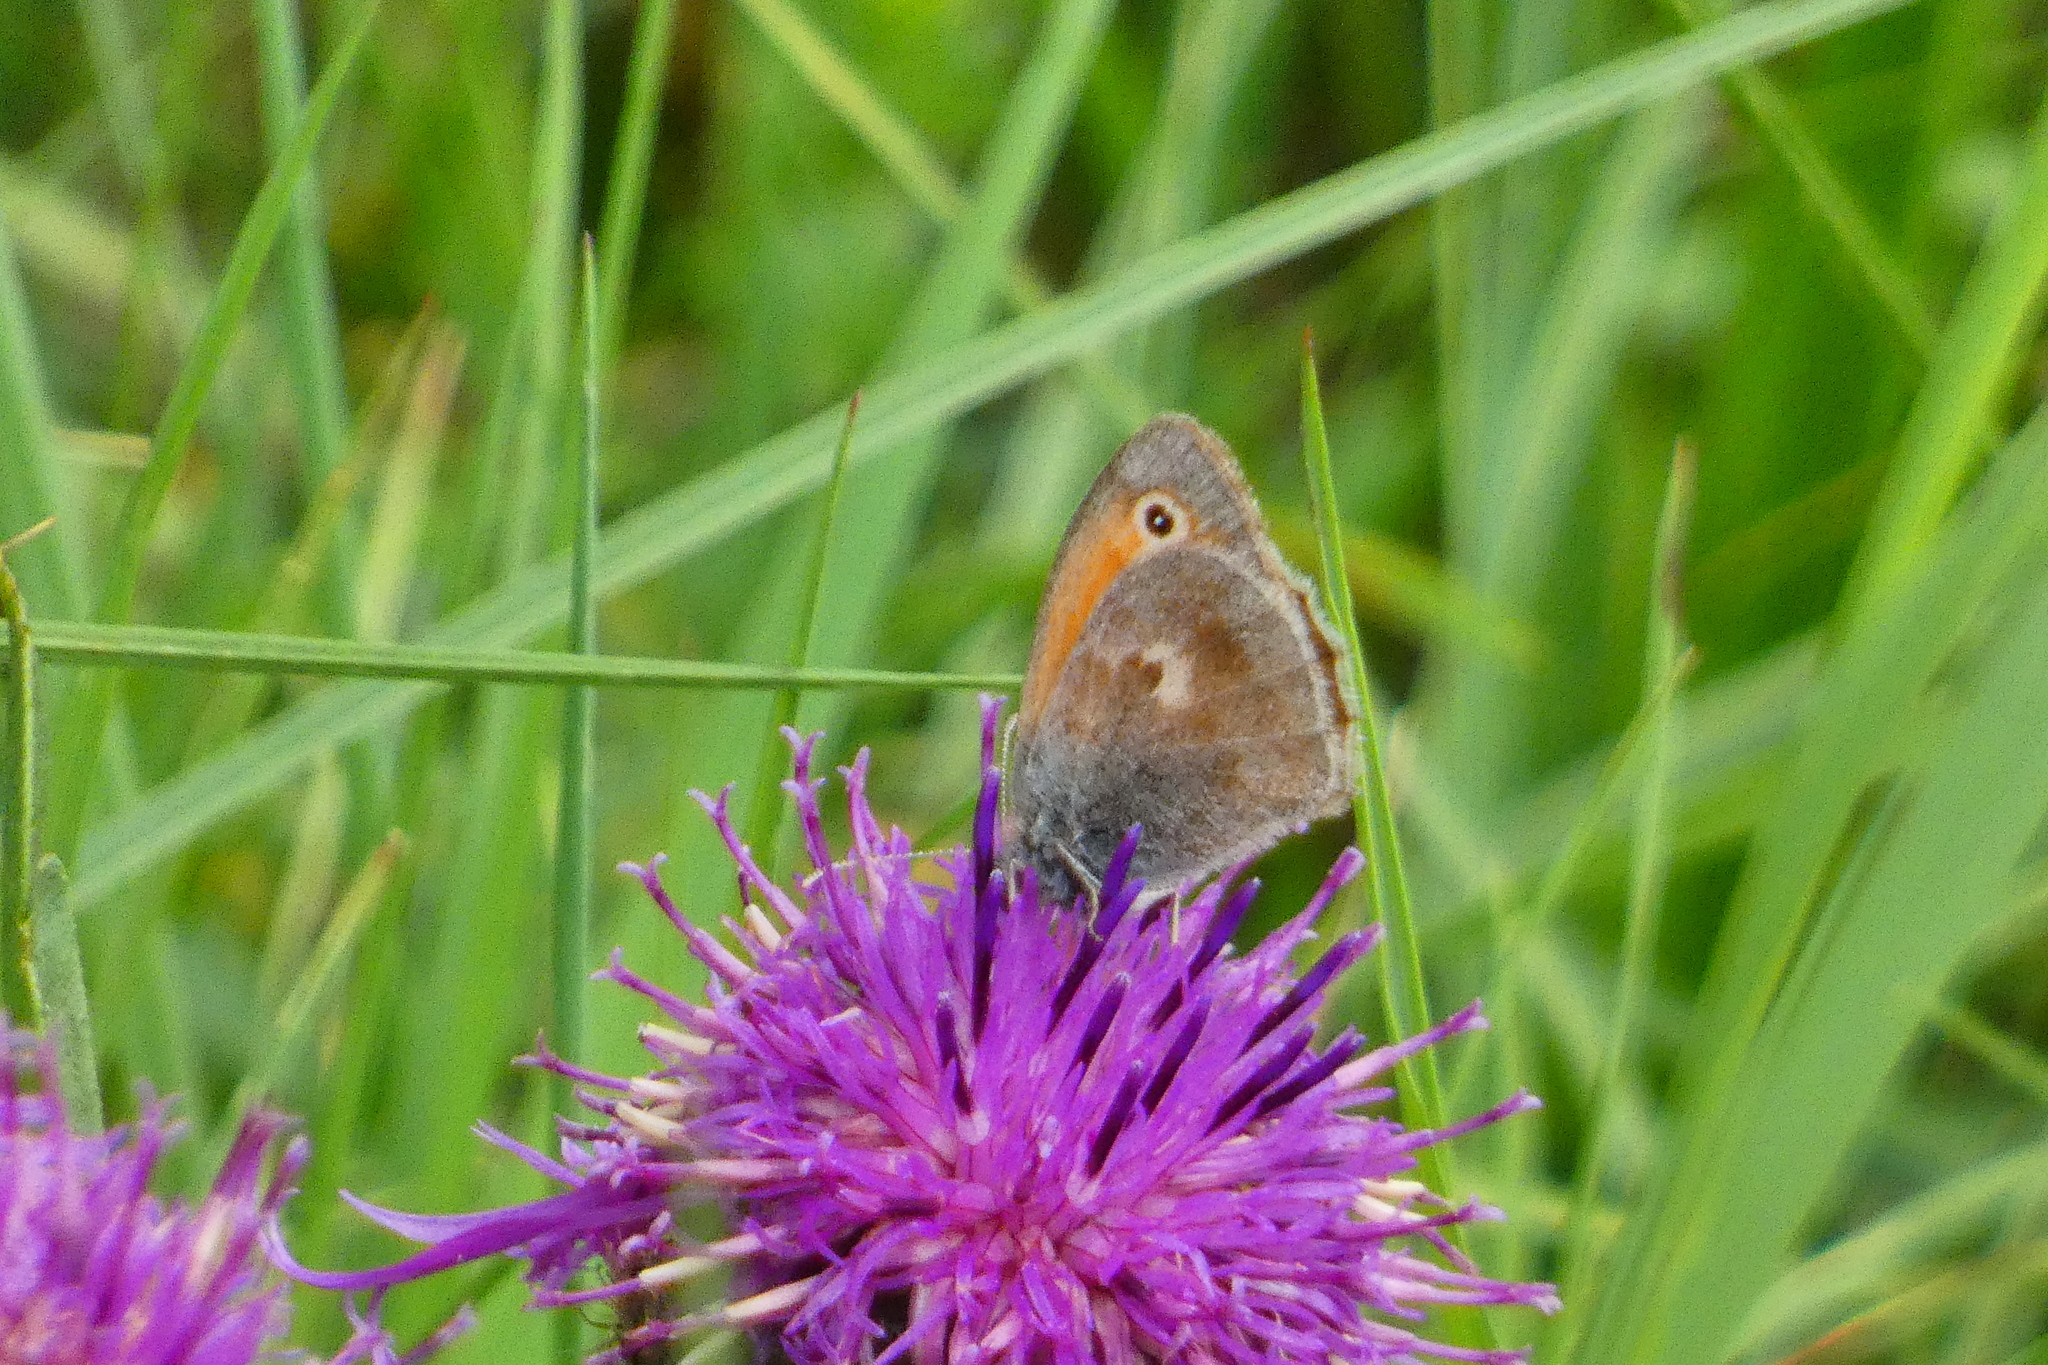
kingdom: Animalia
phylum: Arthropoda
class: Insecta
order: Lepidoptera
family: Nymphalidae
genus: Coenonympha
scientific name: Coenonympha pamphilus
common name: Small heath
